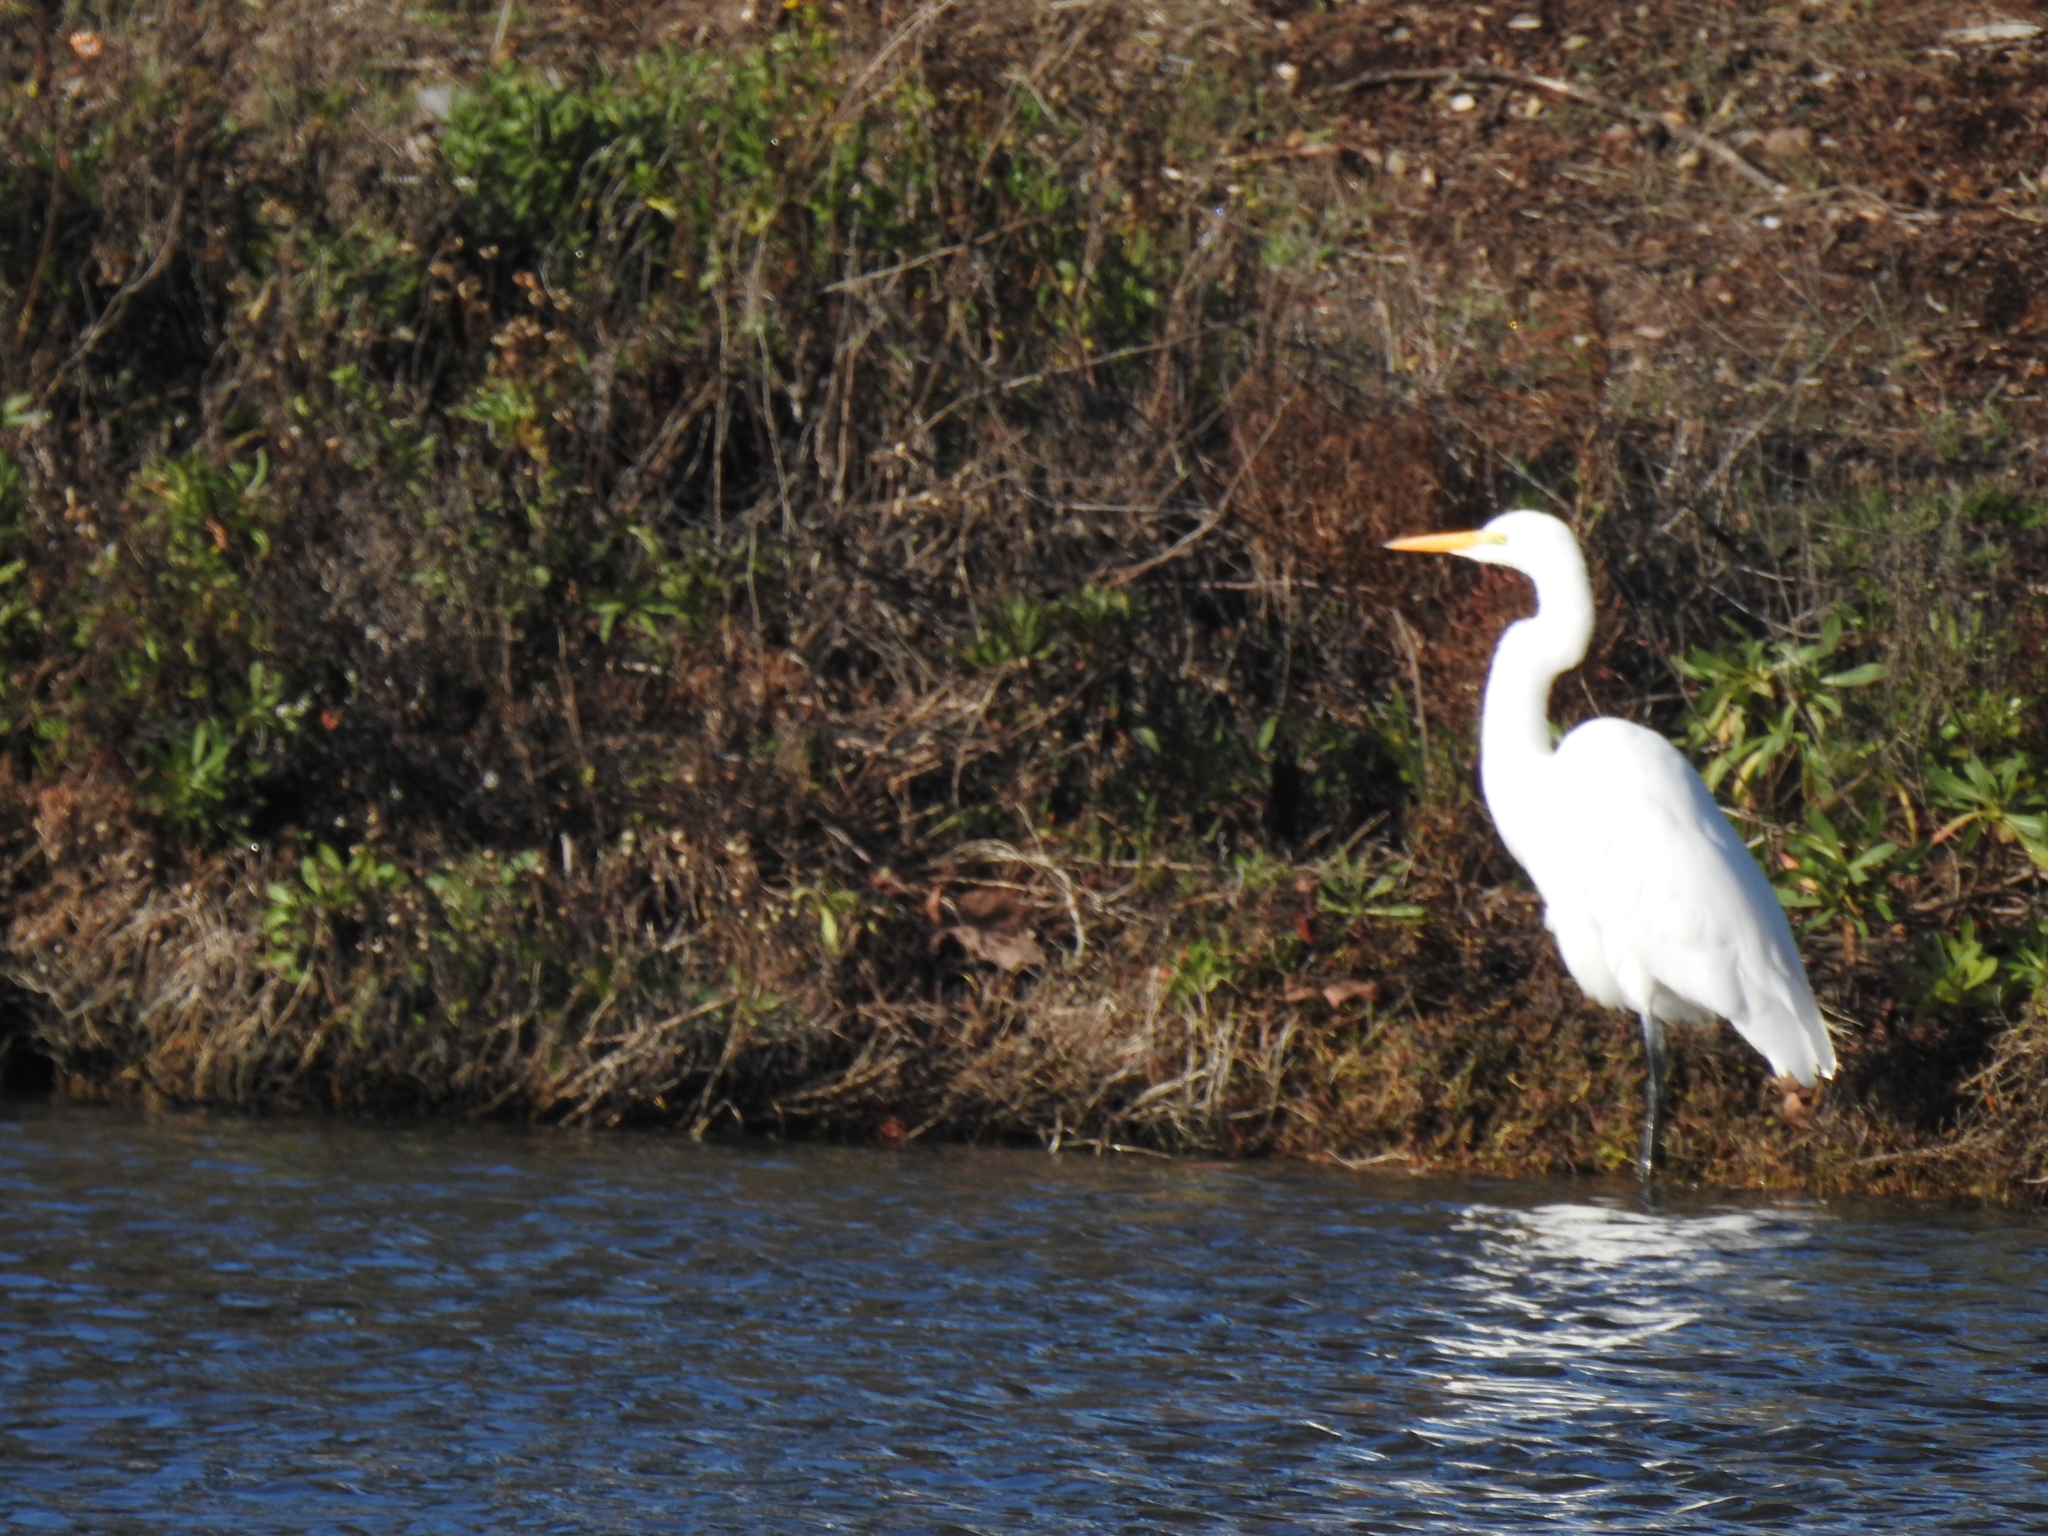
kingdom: Animalia
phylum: Chordata
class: Aves
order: Pelecaniformes
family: Ardeidae
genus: Ardea
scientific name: Ardea alba
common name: Great egret
